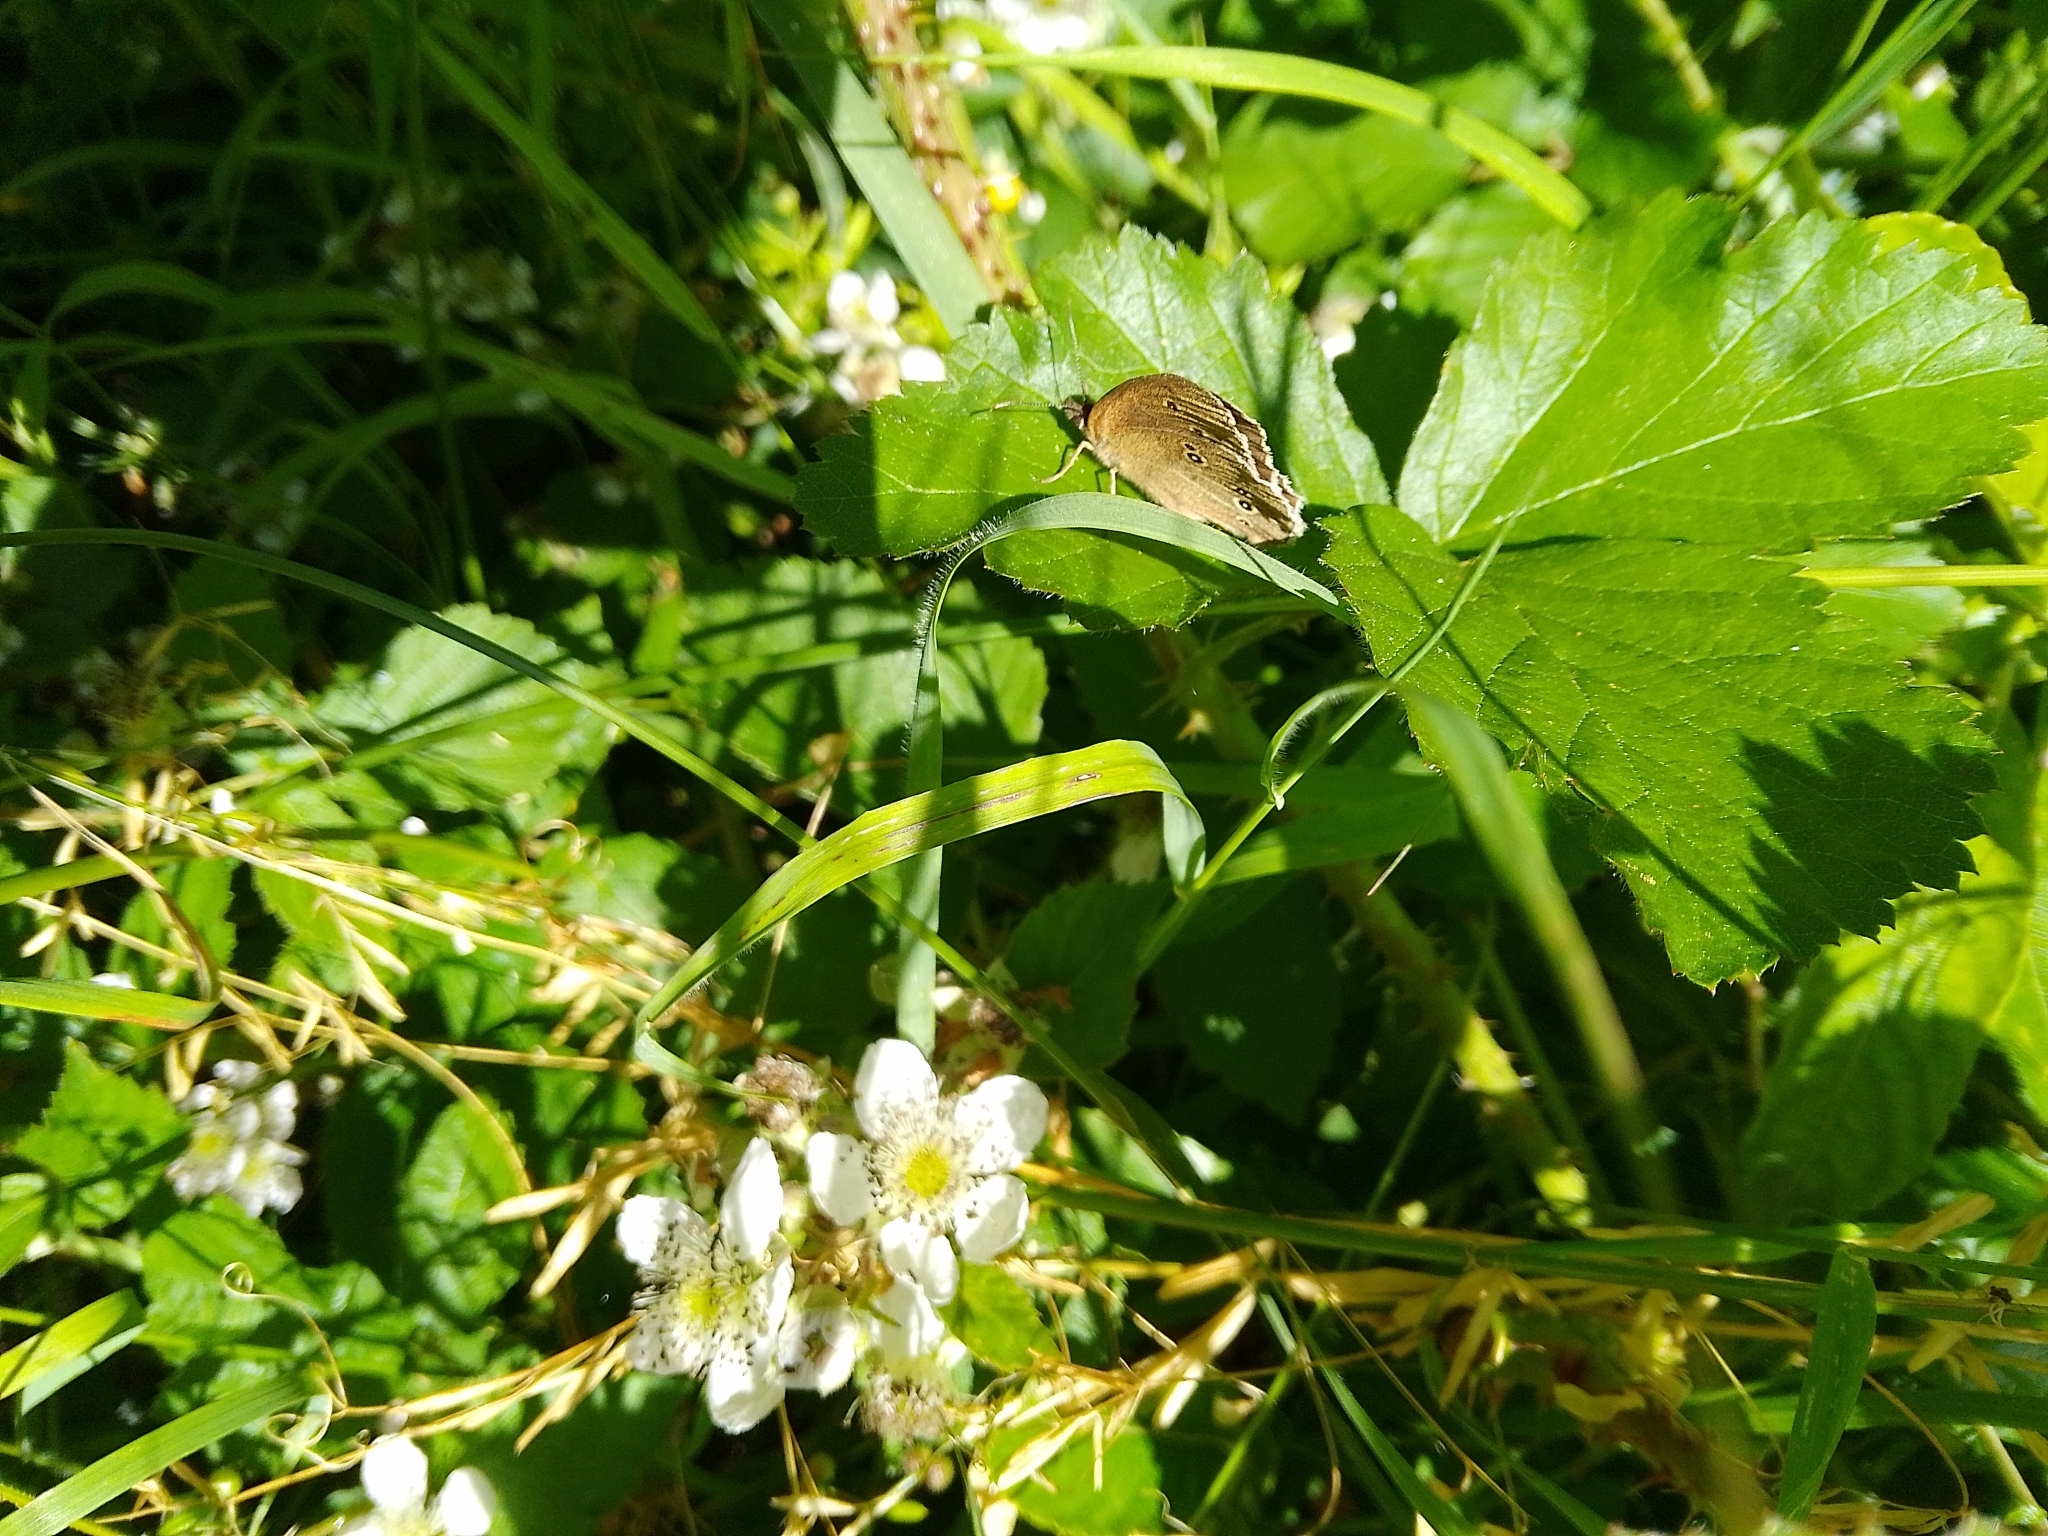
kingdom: Animalia
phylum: Arthropoda
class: Insecta
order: Lepidoptera
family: Nymphalidae
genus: Aphantopus
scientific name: Aphantopus hyperantus
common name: Ringlet
